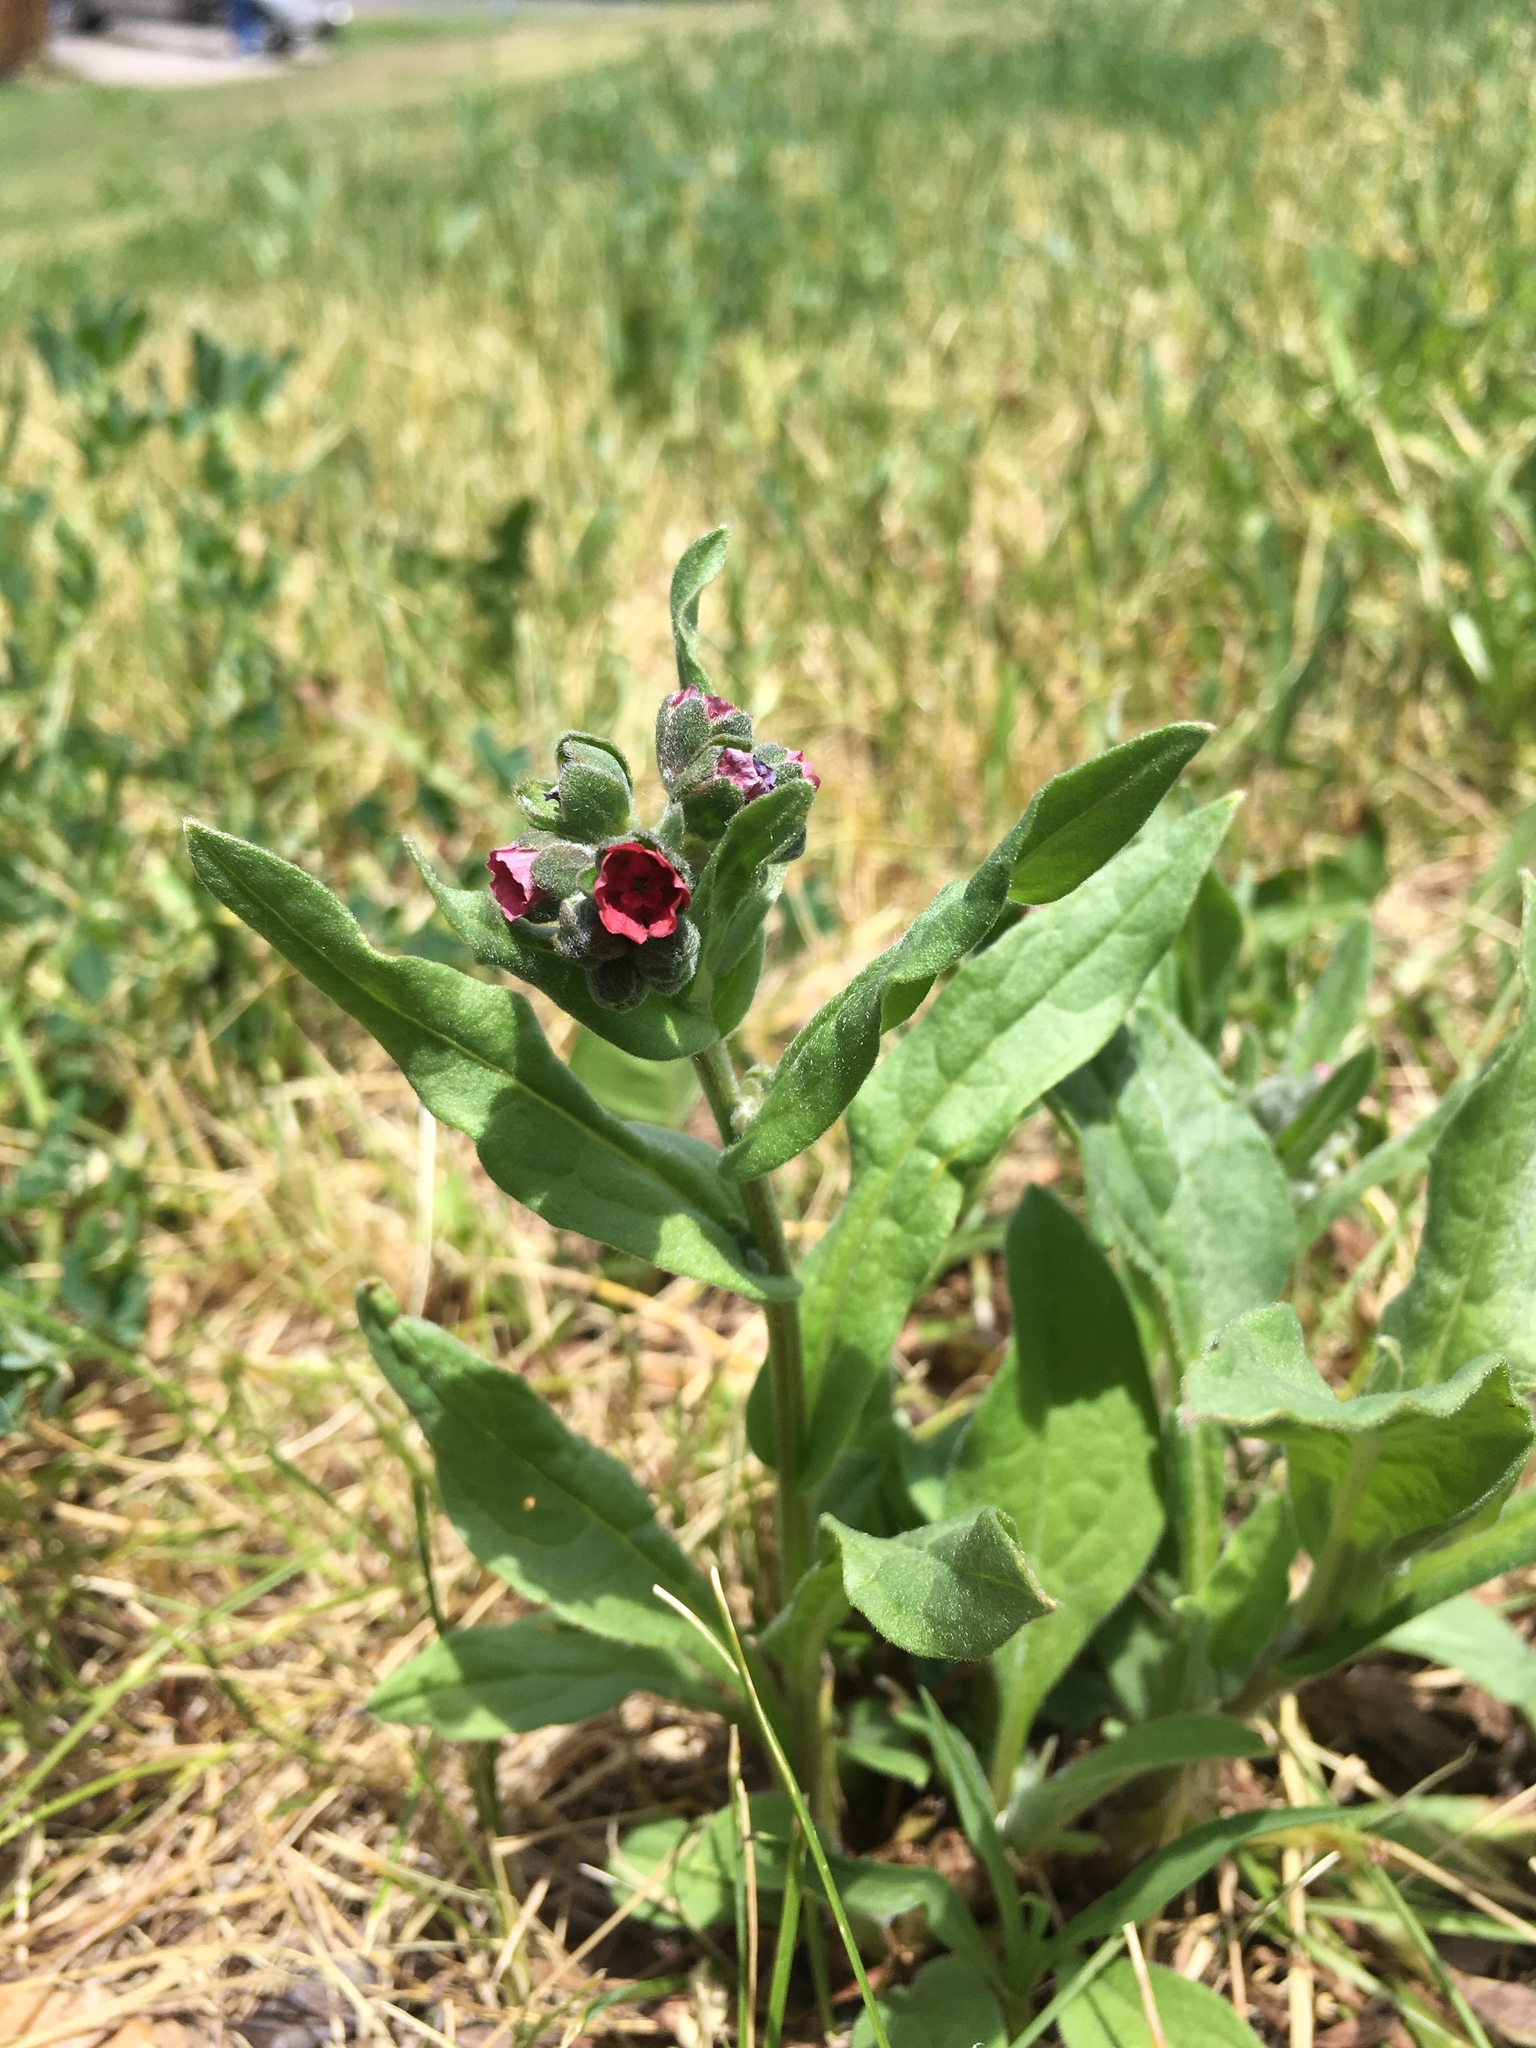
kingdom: Plantae
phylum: Tracheophyta
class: Magnoliopsida
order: Boraginales
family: Boraginaceae
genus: Cynoglossum
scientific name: Cynoglossum officinale
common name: Hound's-tongue
